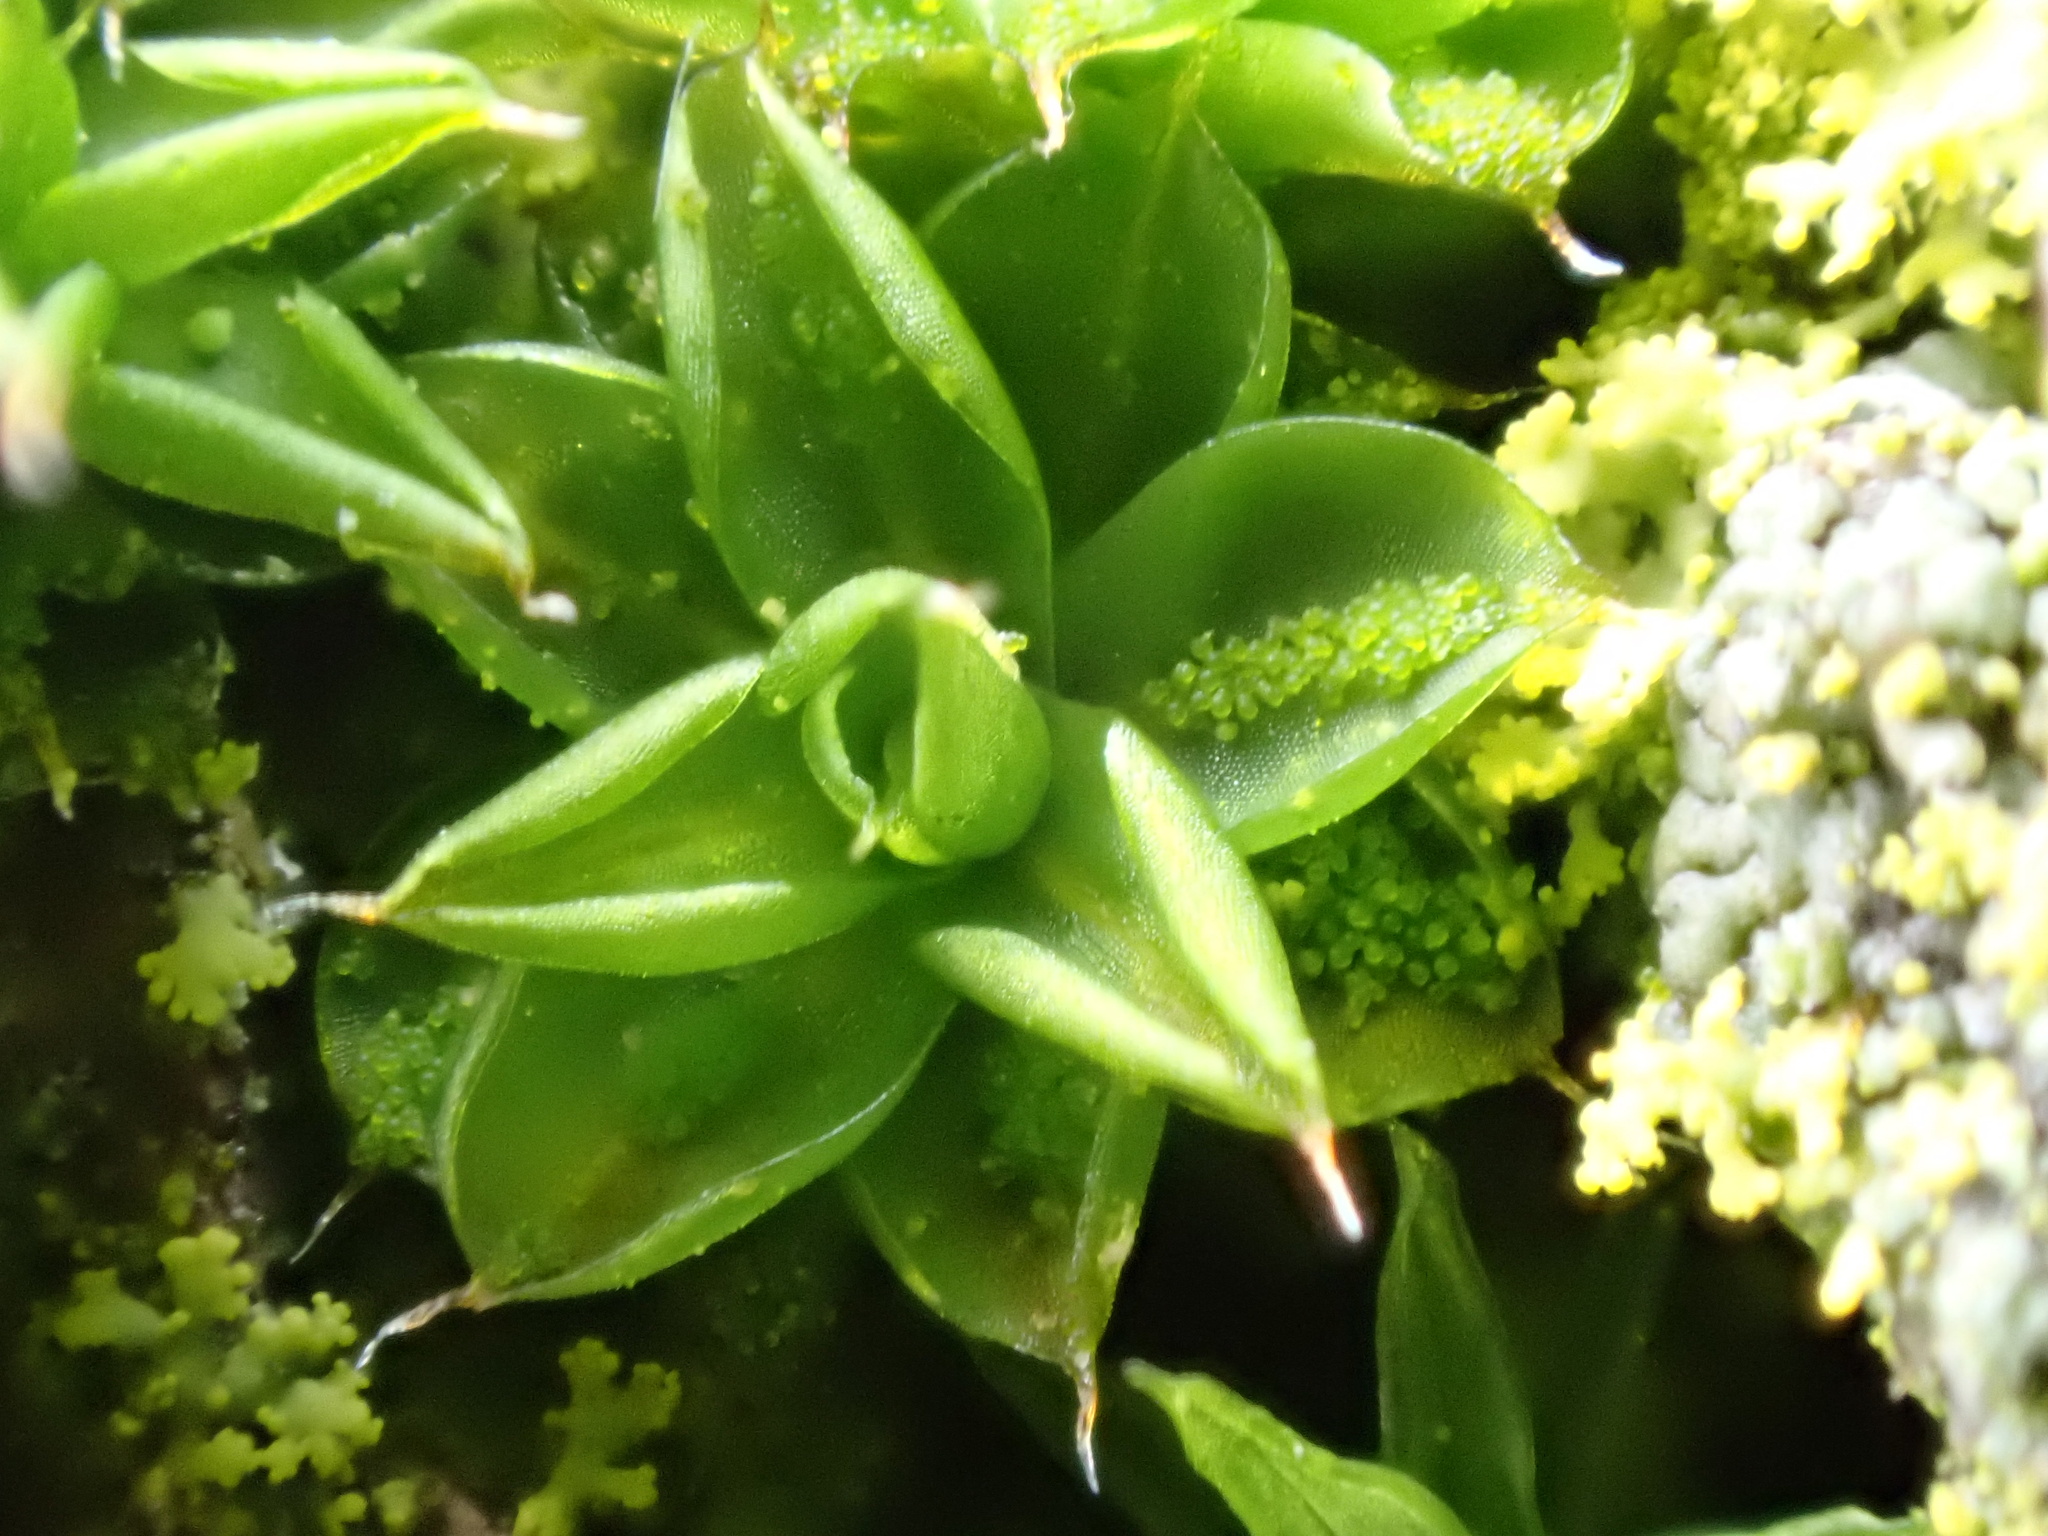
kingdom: Plantae
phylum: Bryophyta
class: Bryopsida
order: Pottiales
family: Pottiaceae
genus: Syntrichia
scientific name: Syntrichia papillosa
